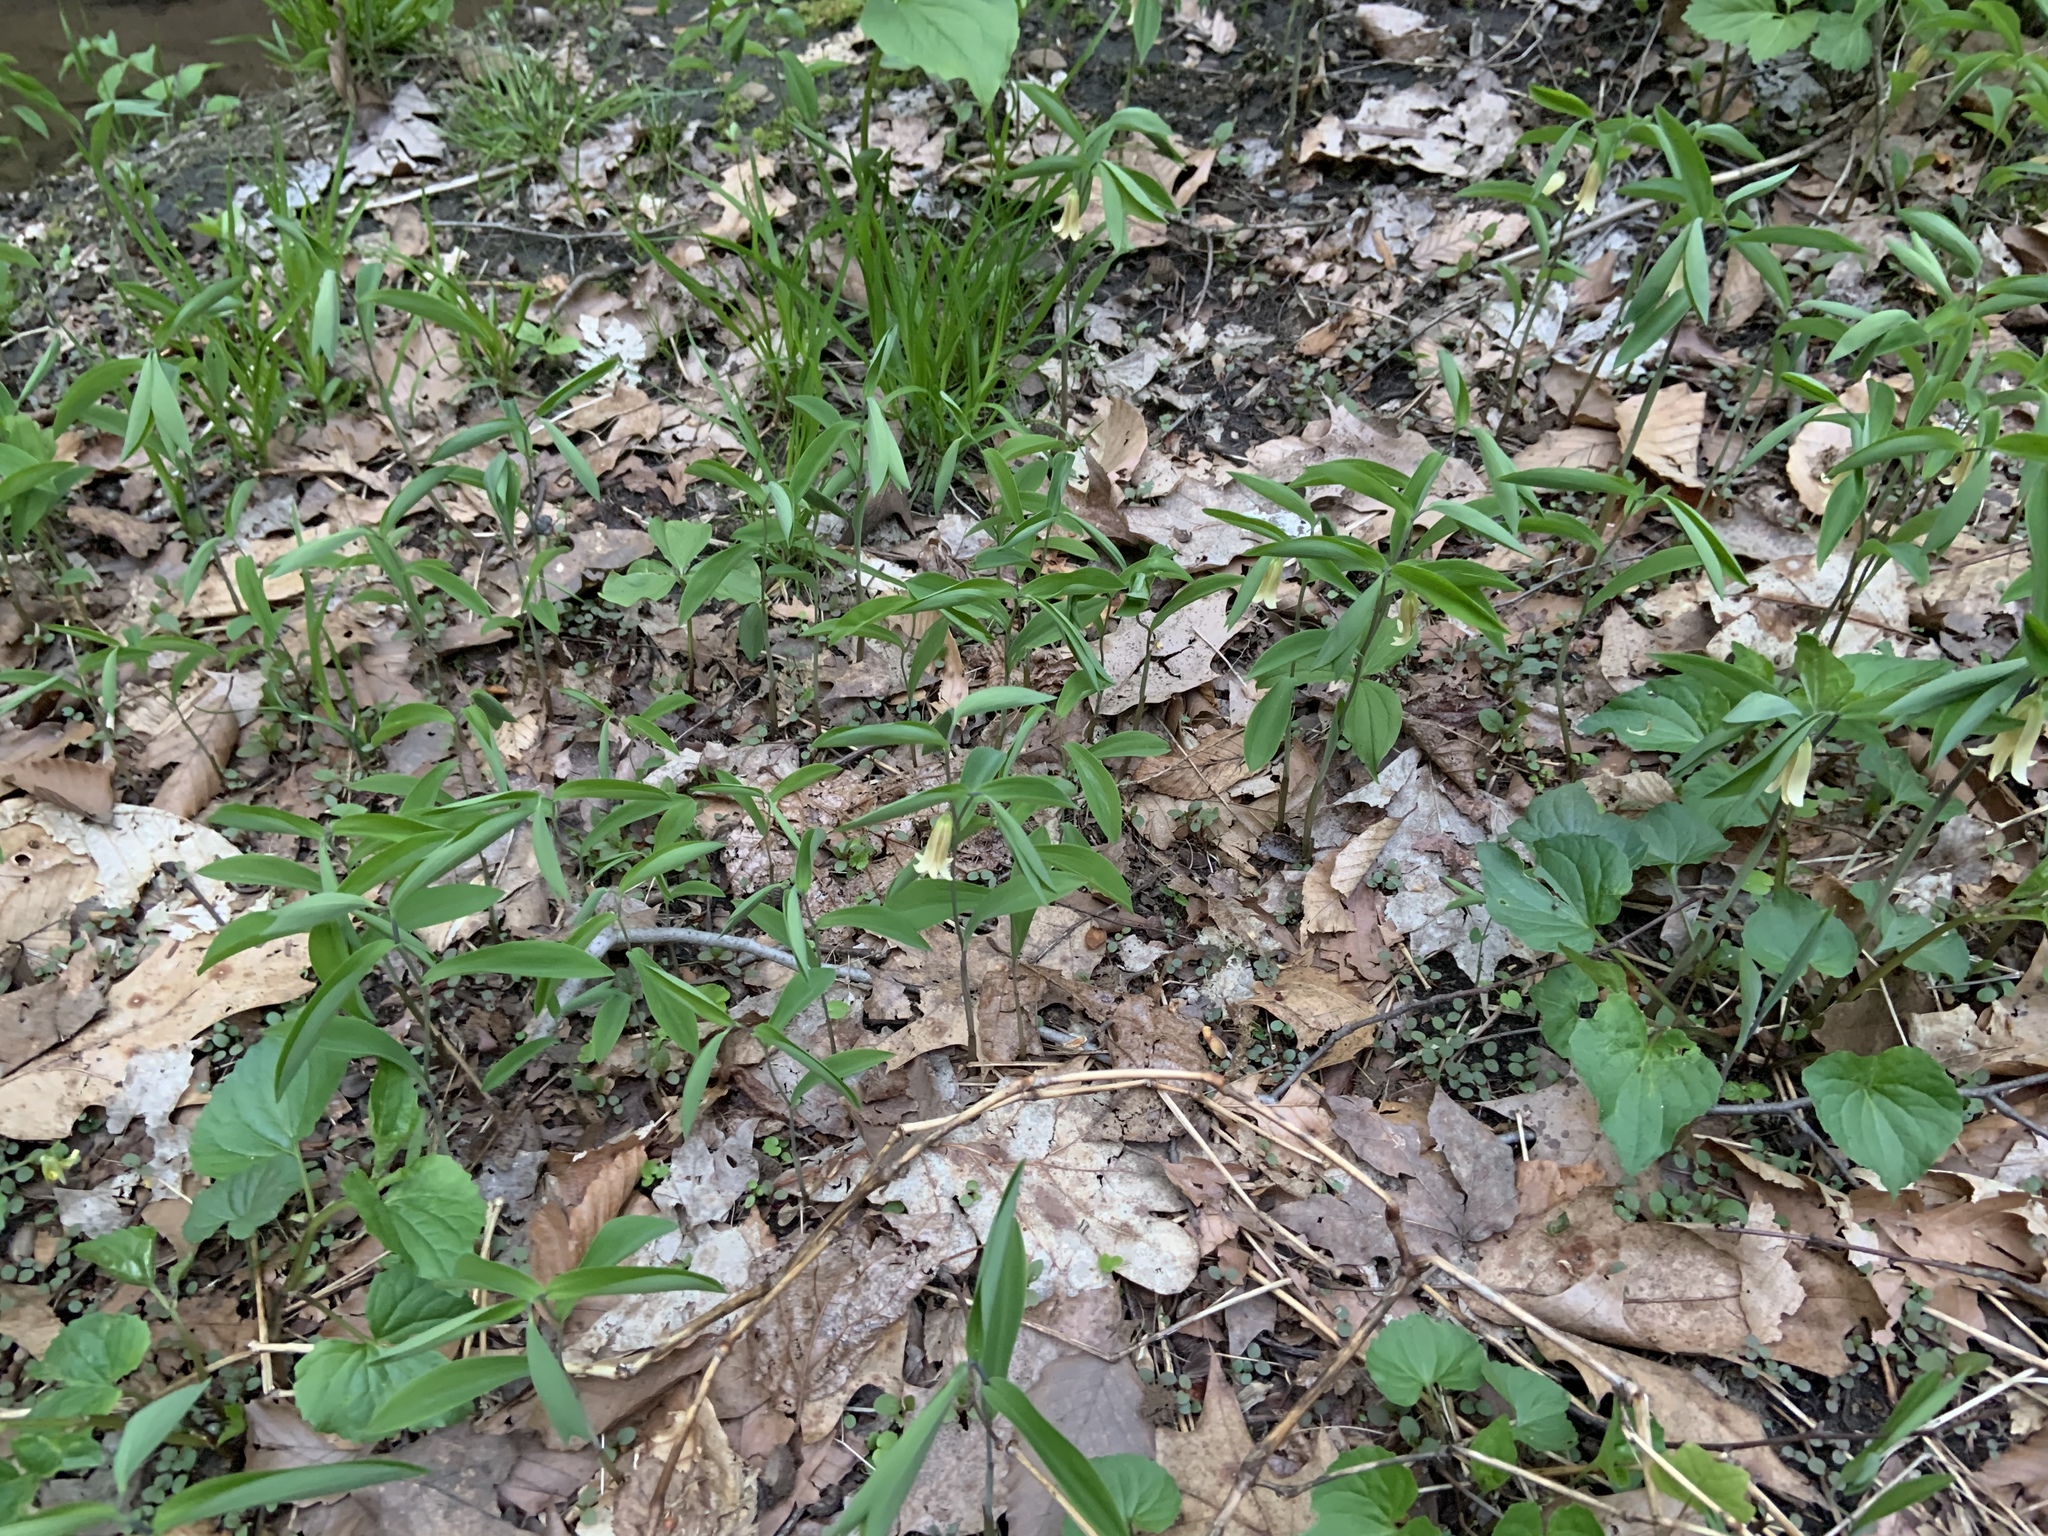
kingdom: Plantae
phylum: Tracheophyta
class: Liliopsida
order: Liliales
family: Colchicaceae
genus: Uvularia
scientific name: Uvularia sessilifolia
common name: Straw-lily
